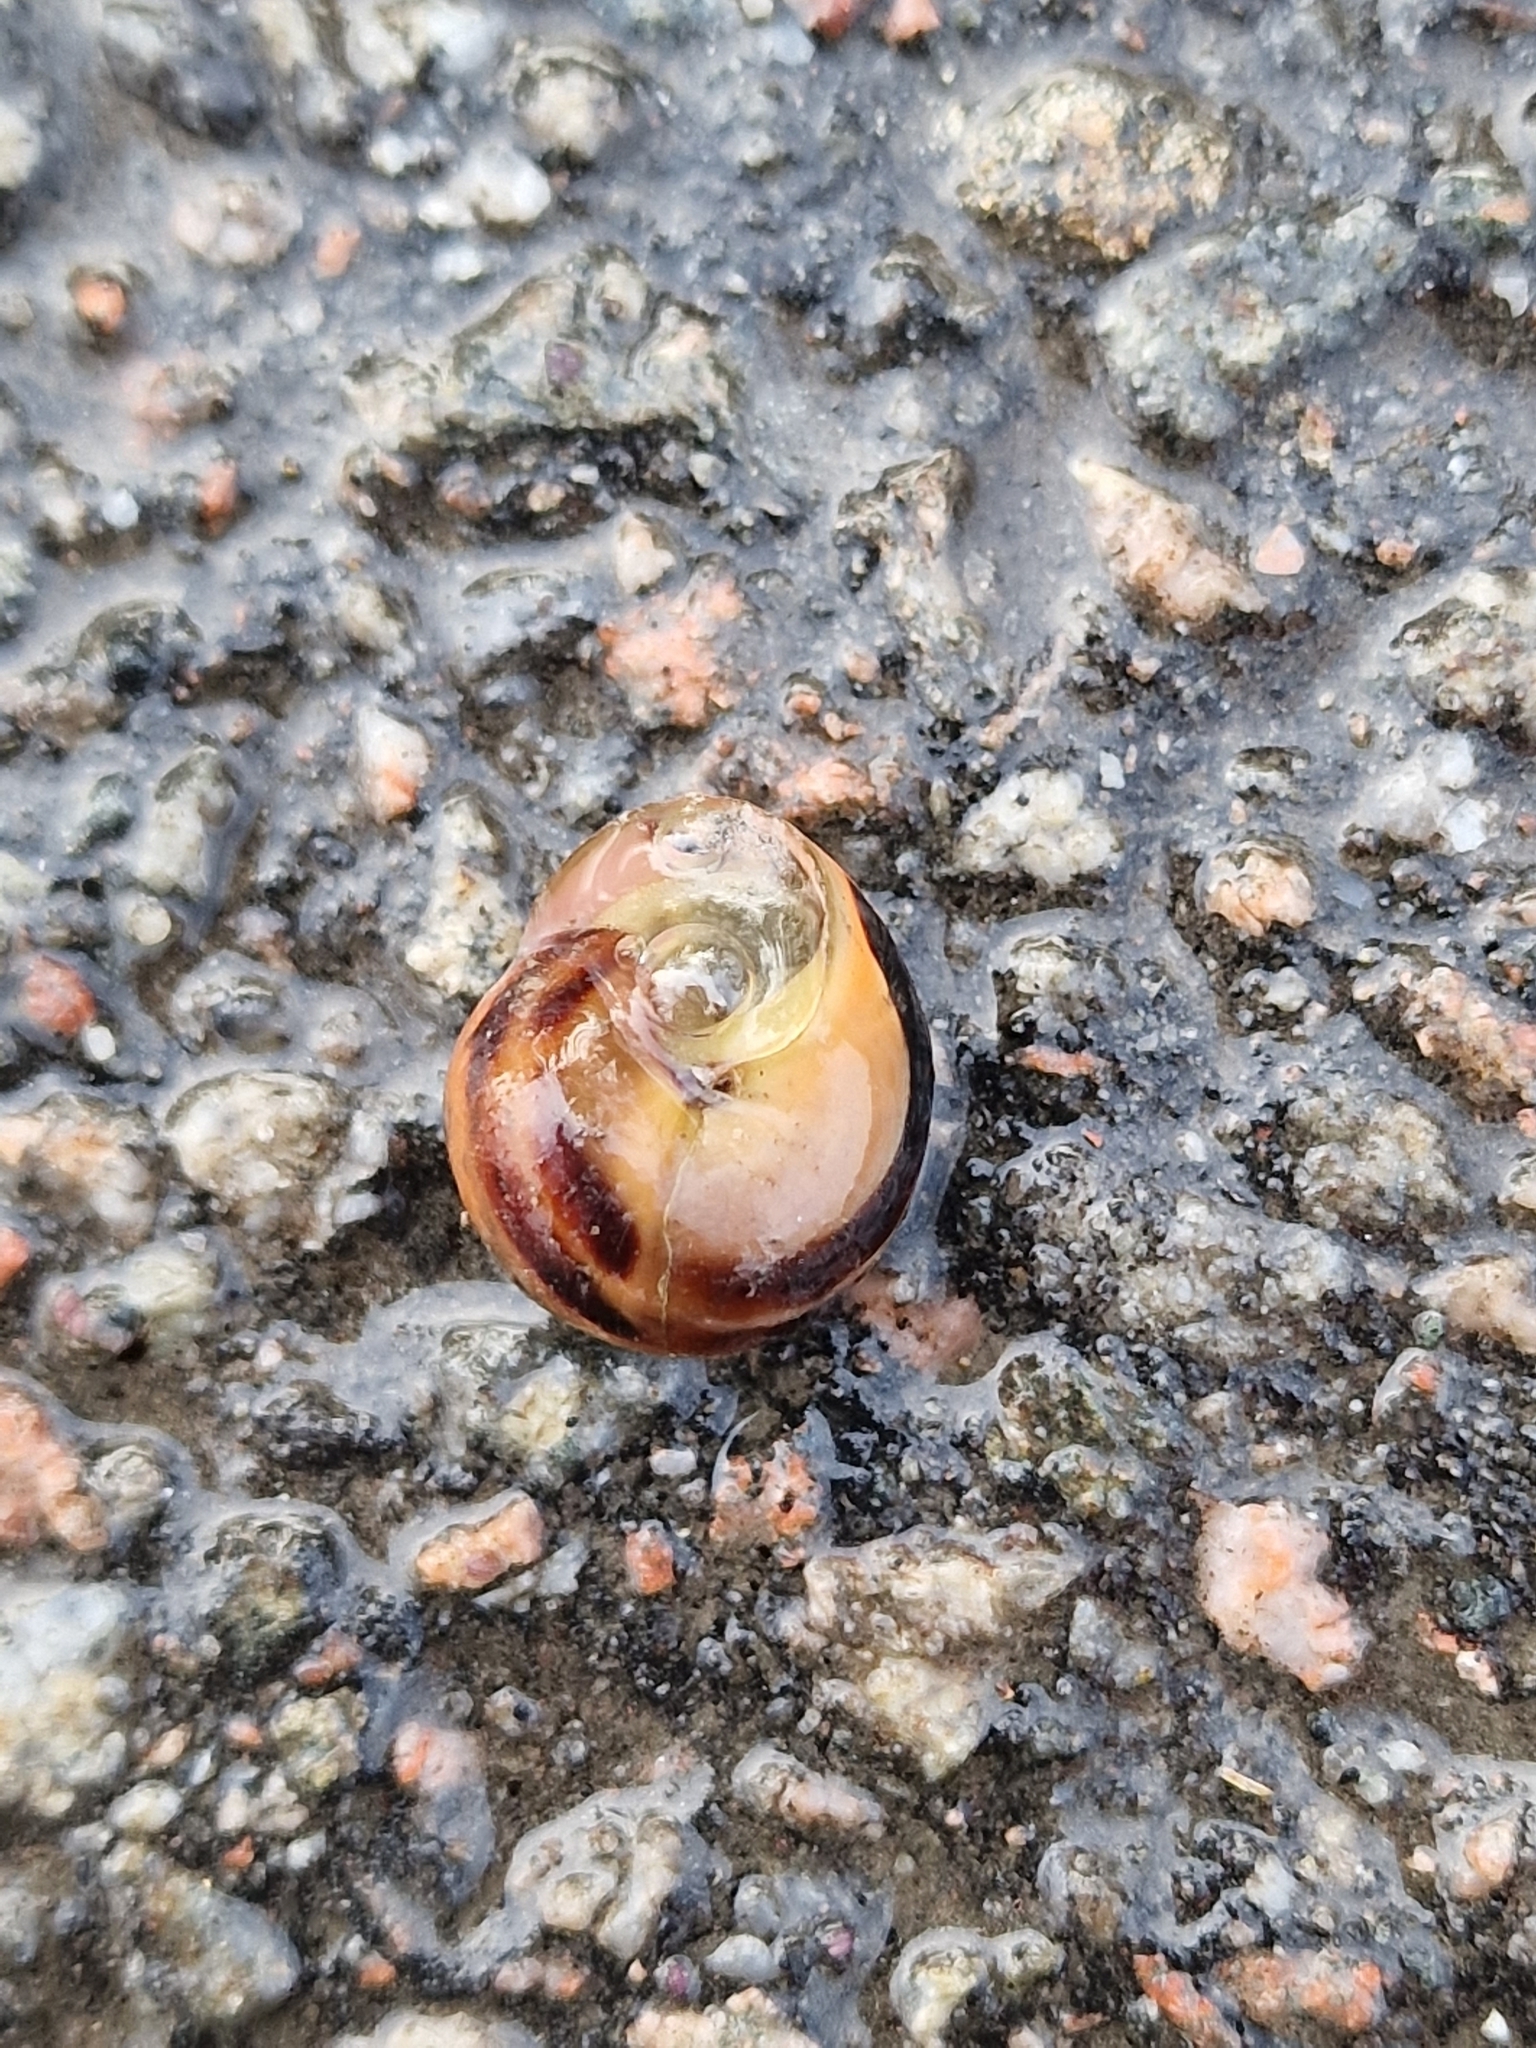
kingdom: Animalia
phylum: Mollusca
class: Gastropoda
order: Stylommatophora
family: Helicidae
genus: Cepaea
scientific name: Cepaea nemoralis
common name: Grovesnail
